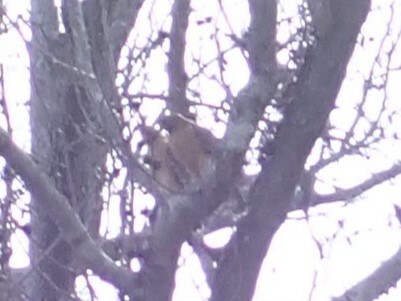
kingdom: Animalia
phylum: Chordata
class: Aves
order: Accipitriformes
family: Accipitridae
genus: Buteo
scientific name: Buteo lineatus
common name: Red-shouldered hawk
